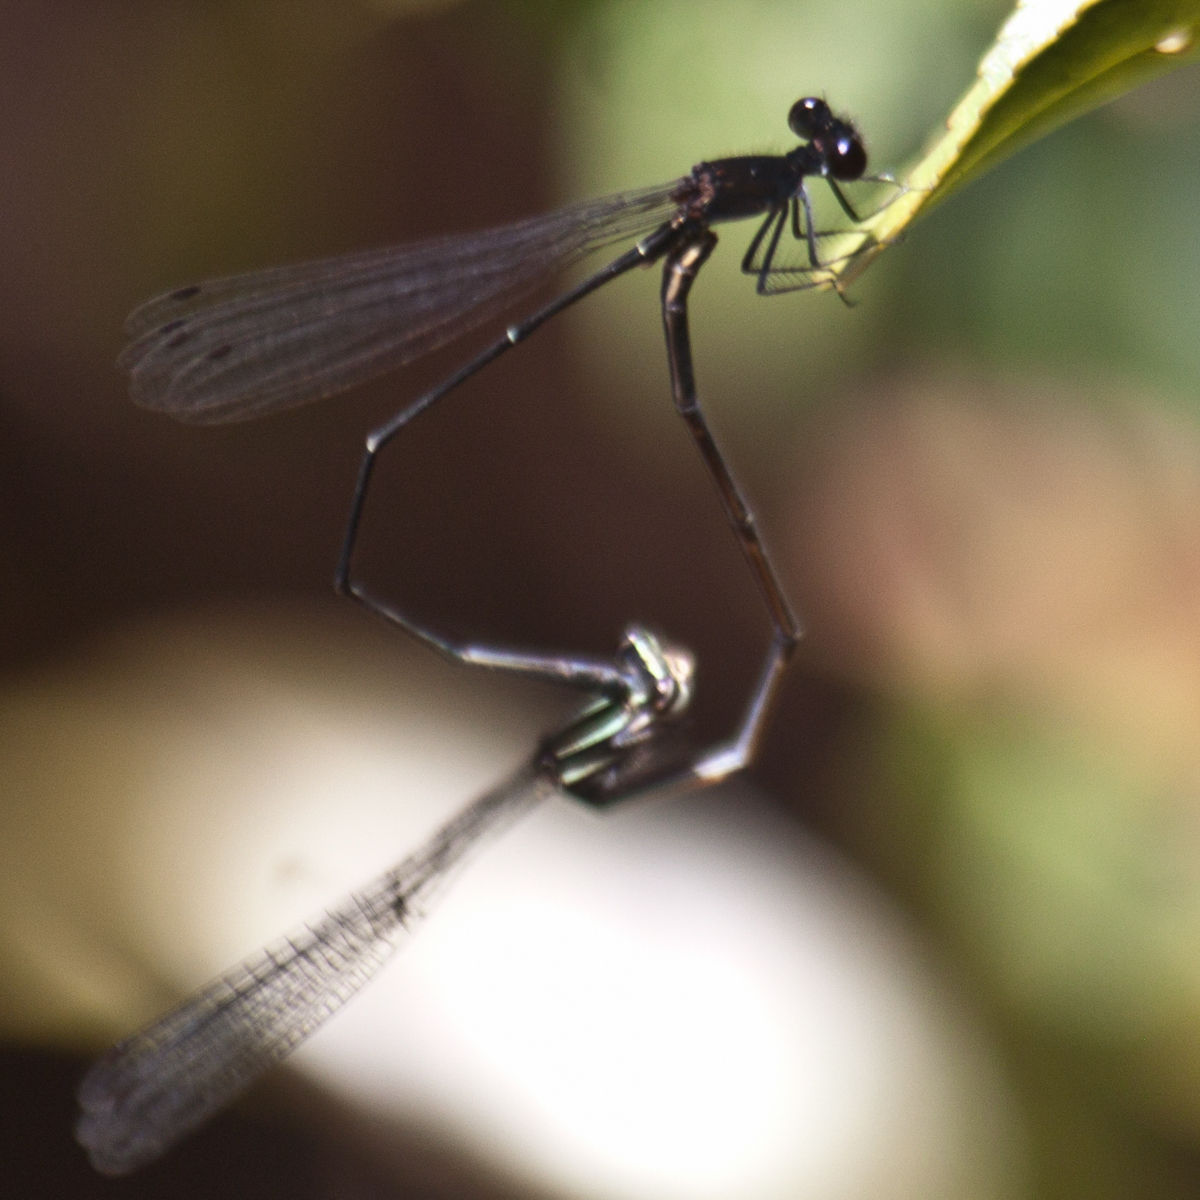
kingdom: Animalia
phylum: Arthropoda
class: Insecta
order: Odonata
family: Platycnemididae
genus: Prodasineura
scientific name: Prodasineura autumnalis
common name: Black threadtail
